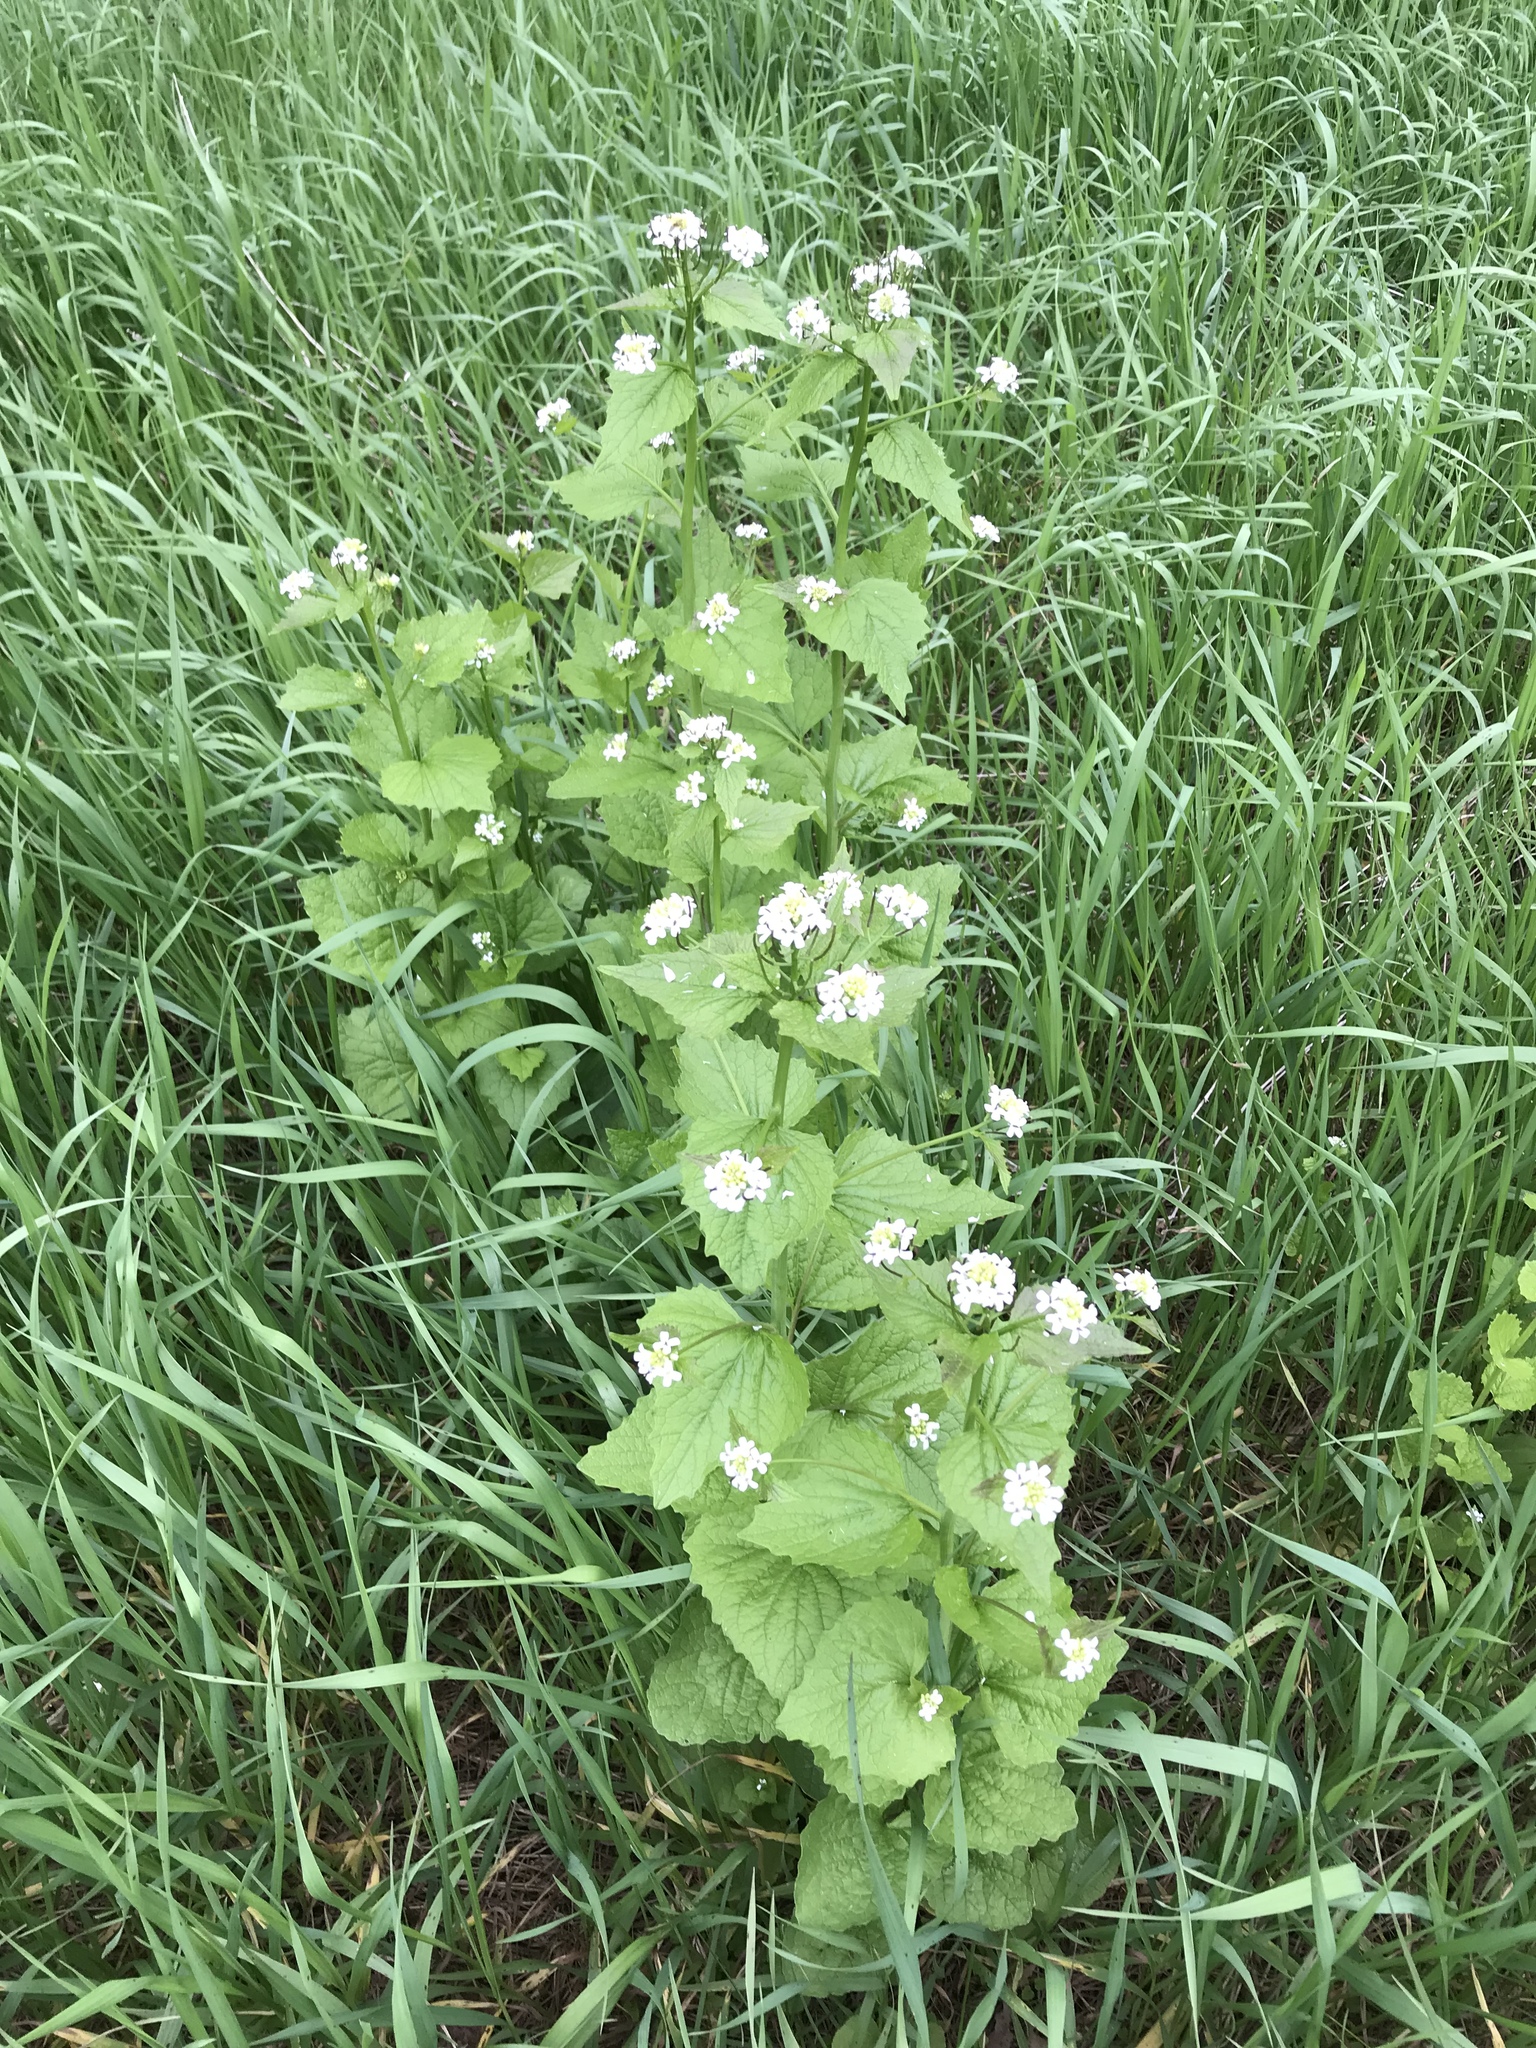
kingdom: Plantae
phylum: Tracheophyta
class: Magnoliopsida
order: Brassicales
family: Brassicaceae
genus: Alliaria
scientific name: Alliaria petiolata
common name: Garlic mustard
